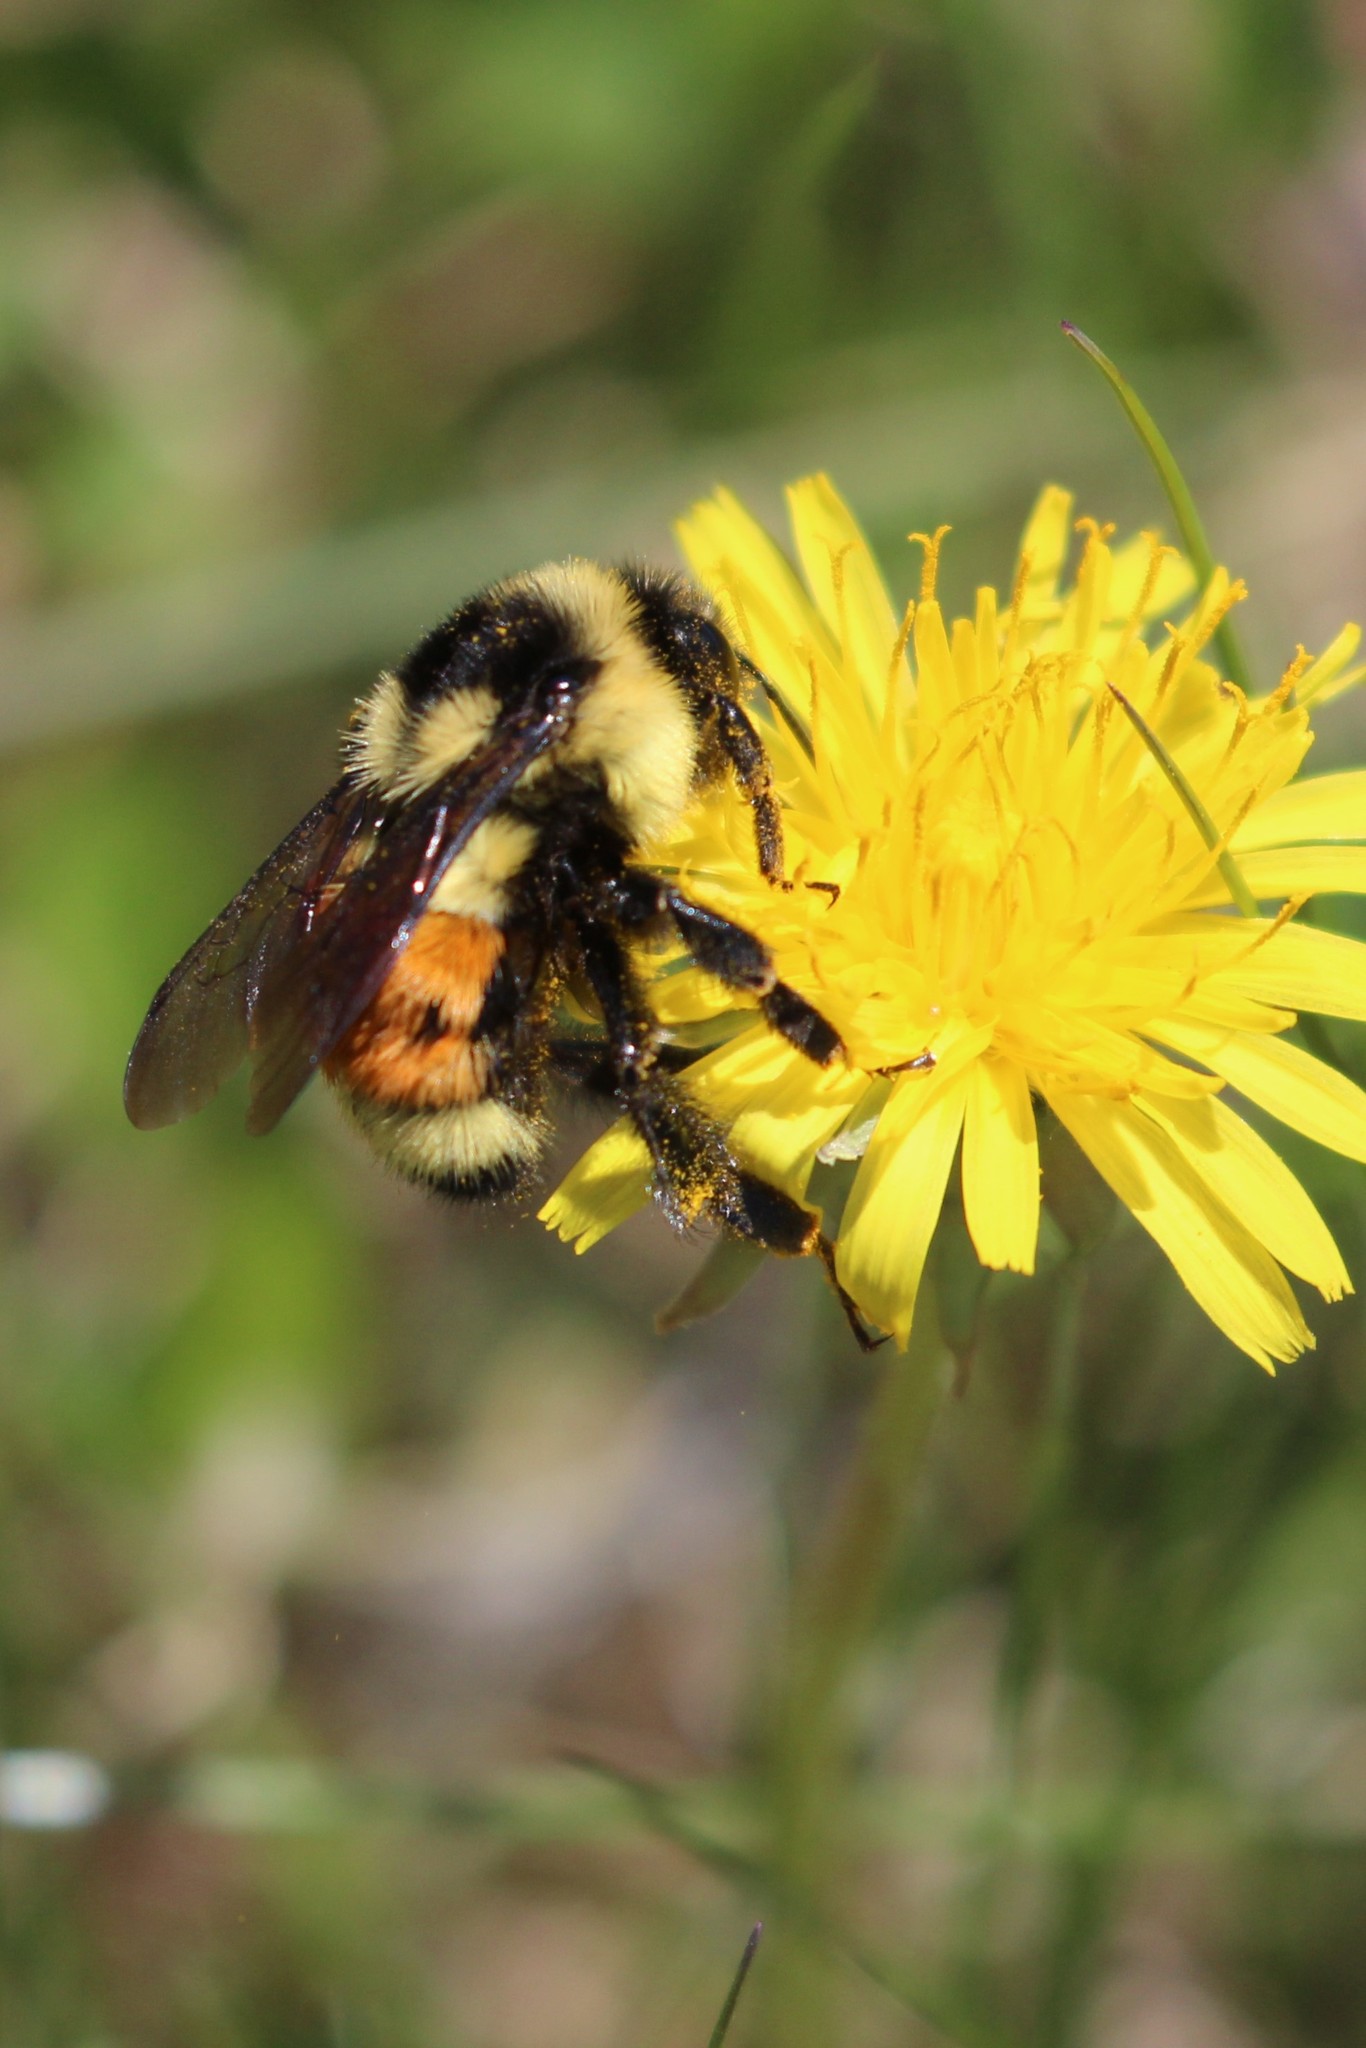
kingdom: Animalia
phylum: Arthropoda
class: Insecta
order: Hymenoptera
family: Apidae
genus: Bombus
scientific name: Bombus ternarius
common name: Tri-colored bumble bee
